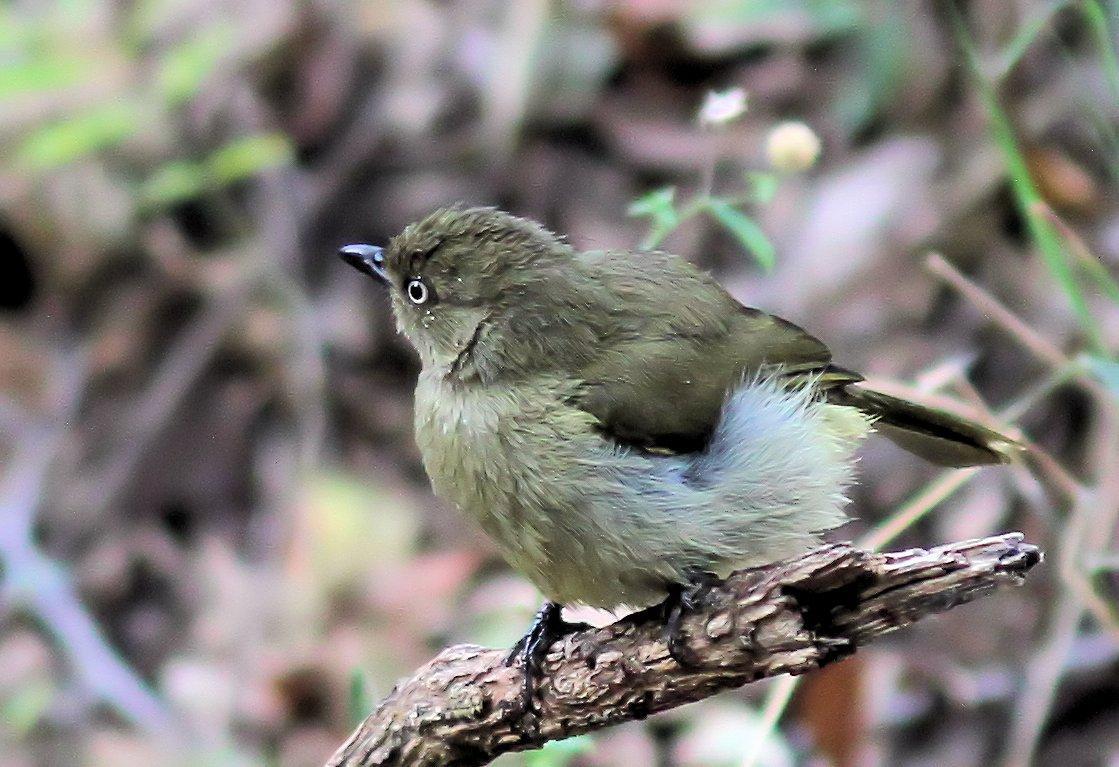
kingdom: Animalia
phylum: Chordata
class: Aves
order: Passeriformes
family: Pycnonotidae
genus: Andropadus
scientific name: Andropadus importunus
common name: Sombre greenbul
